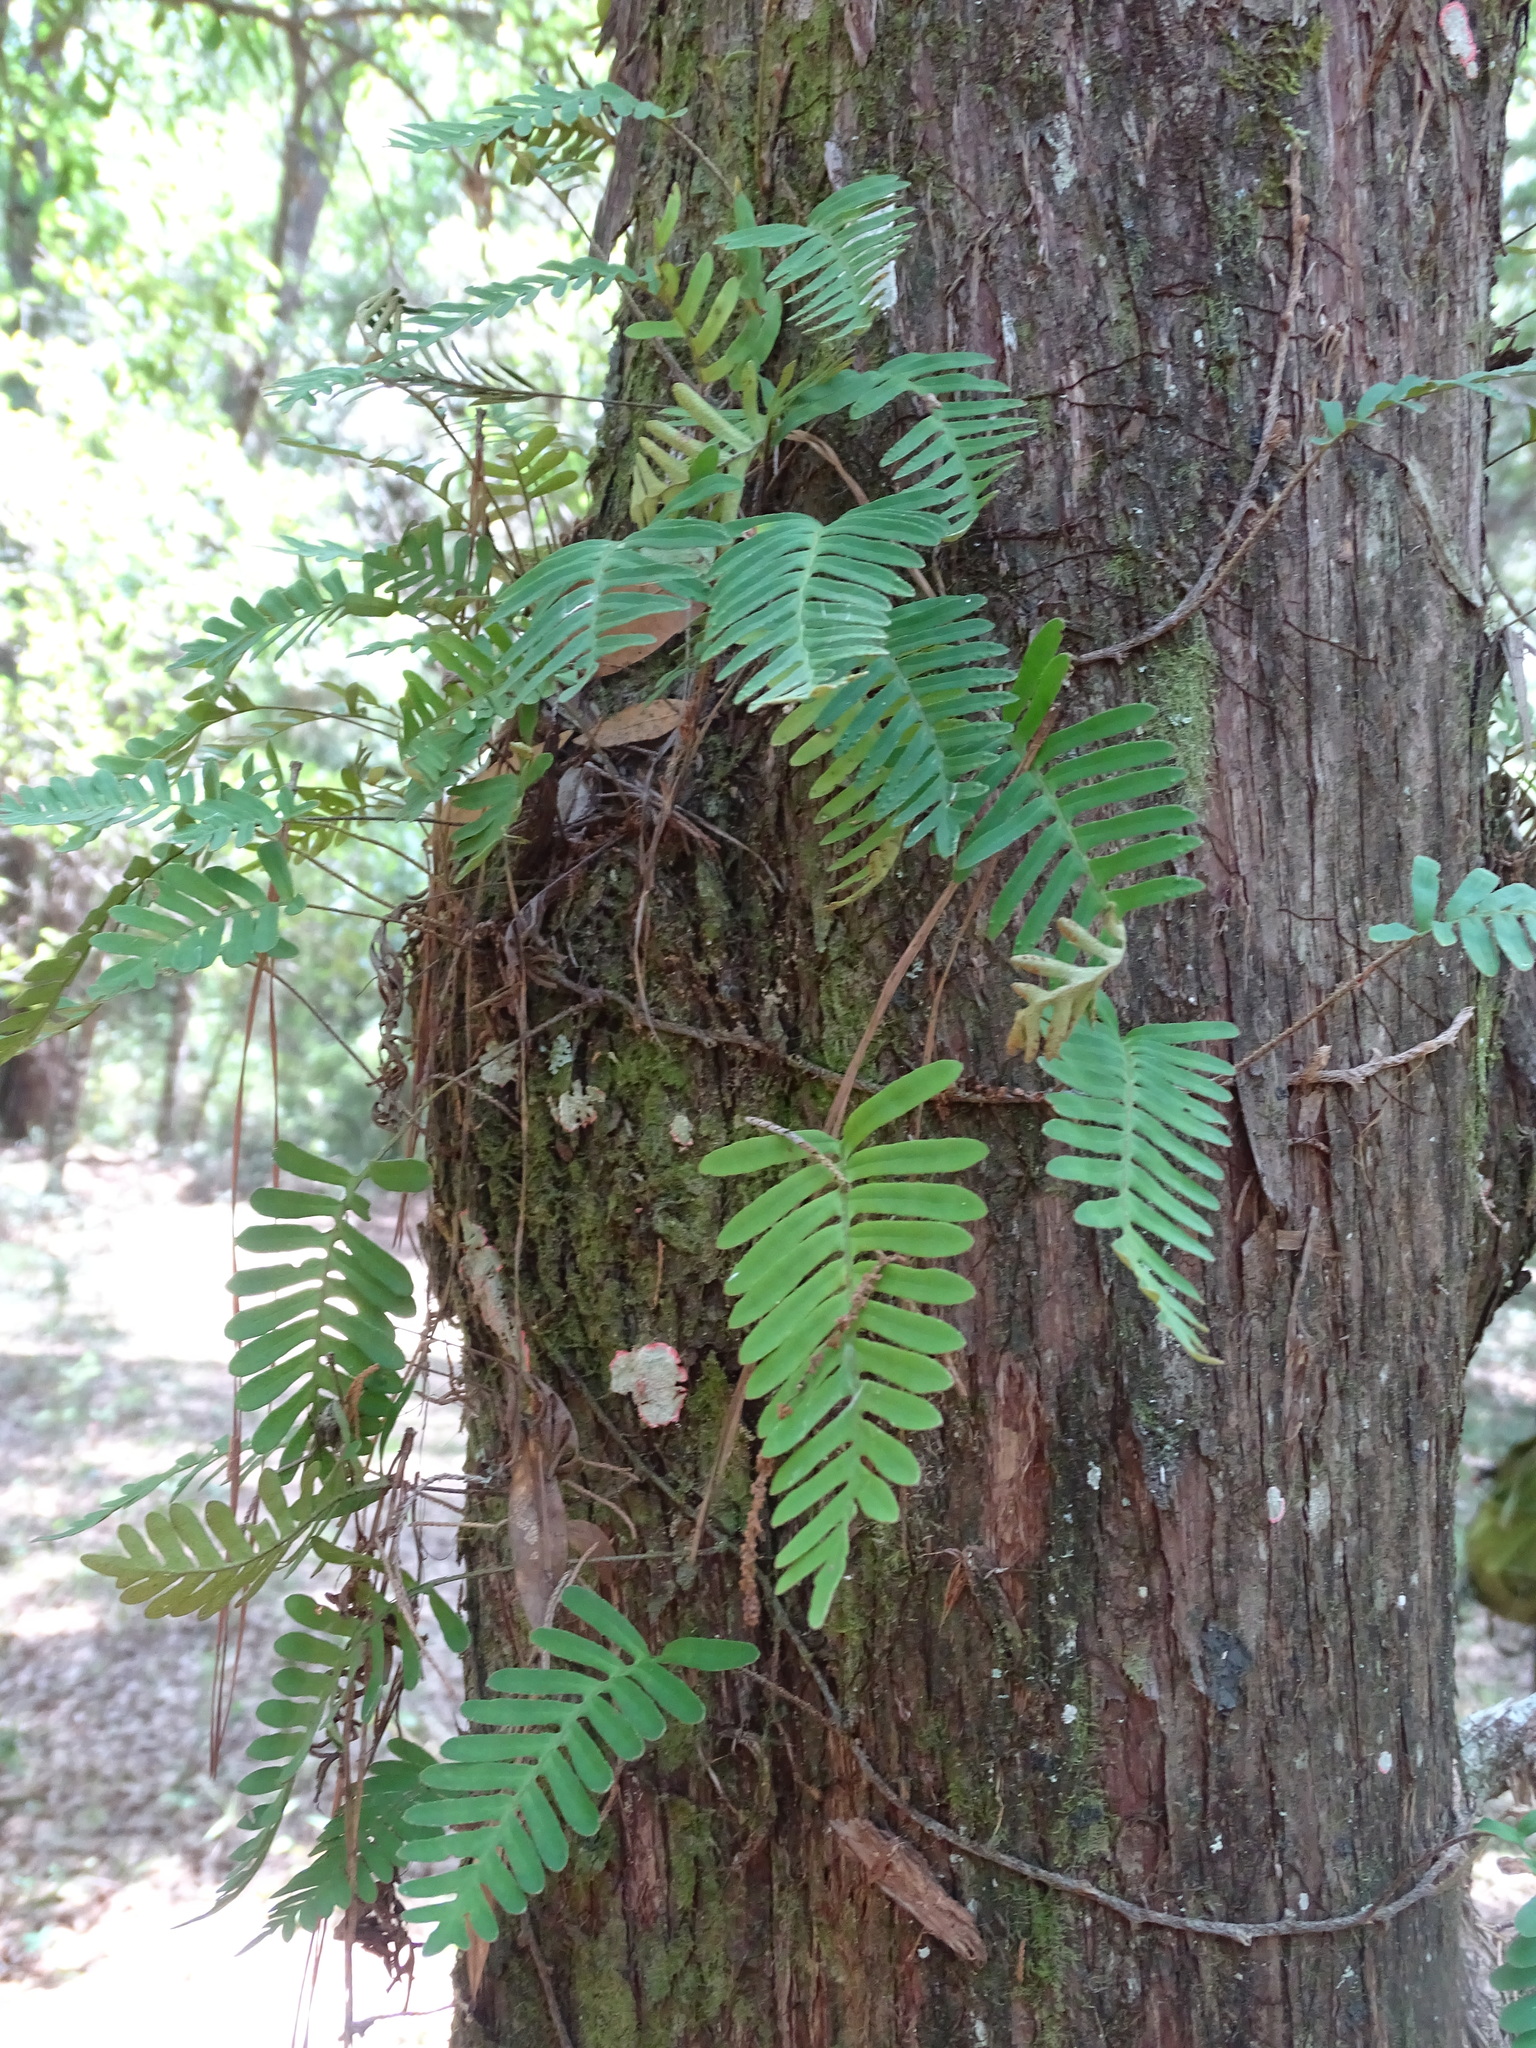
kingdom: Plantae
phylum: Tracheophyta
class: Polypodiopsida
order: Polypodiales
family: Polypodiaceae
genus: Pleopeltis
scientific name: Pleopeltis michauxiana
